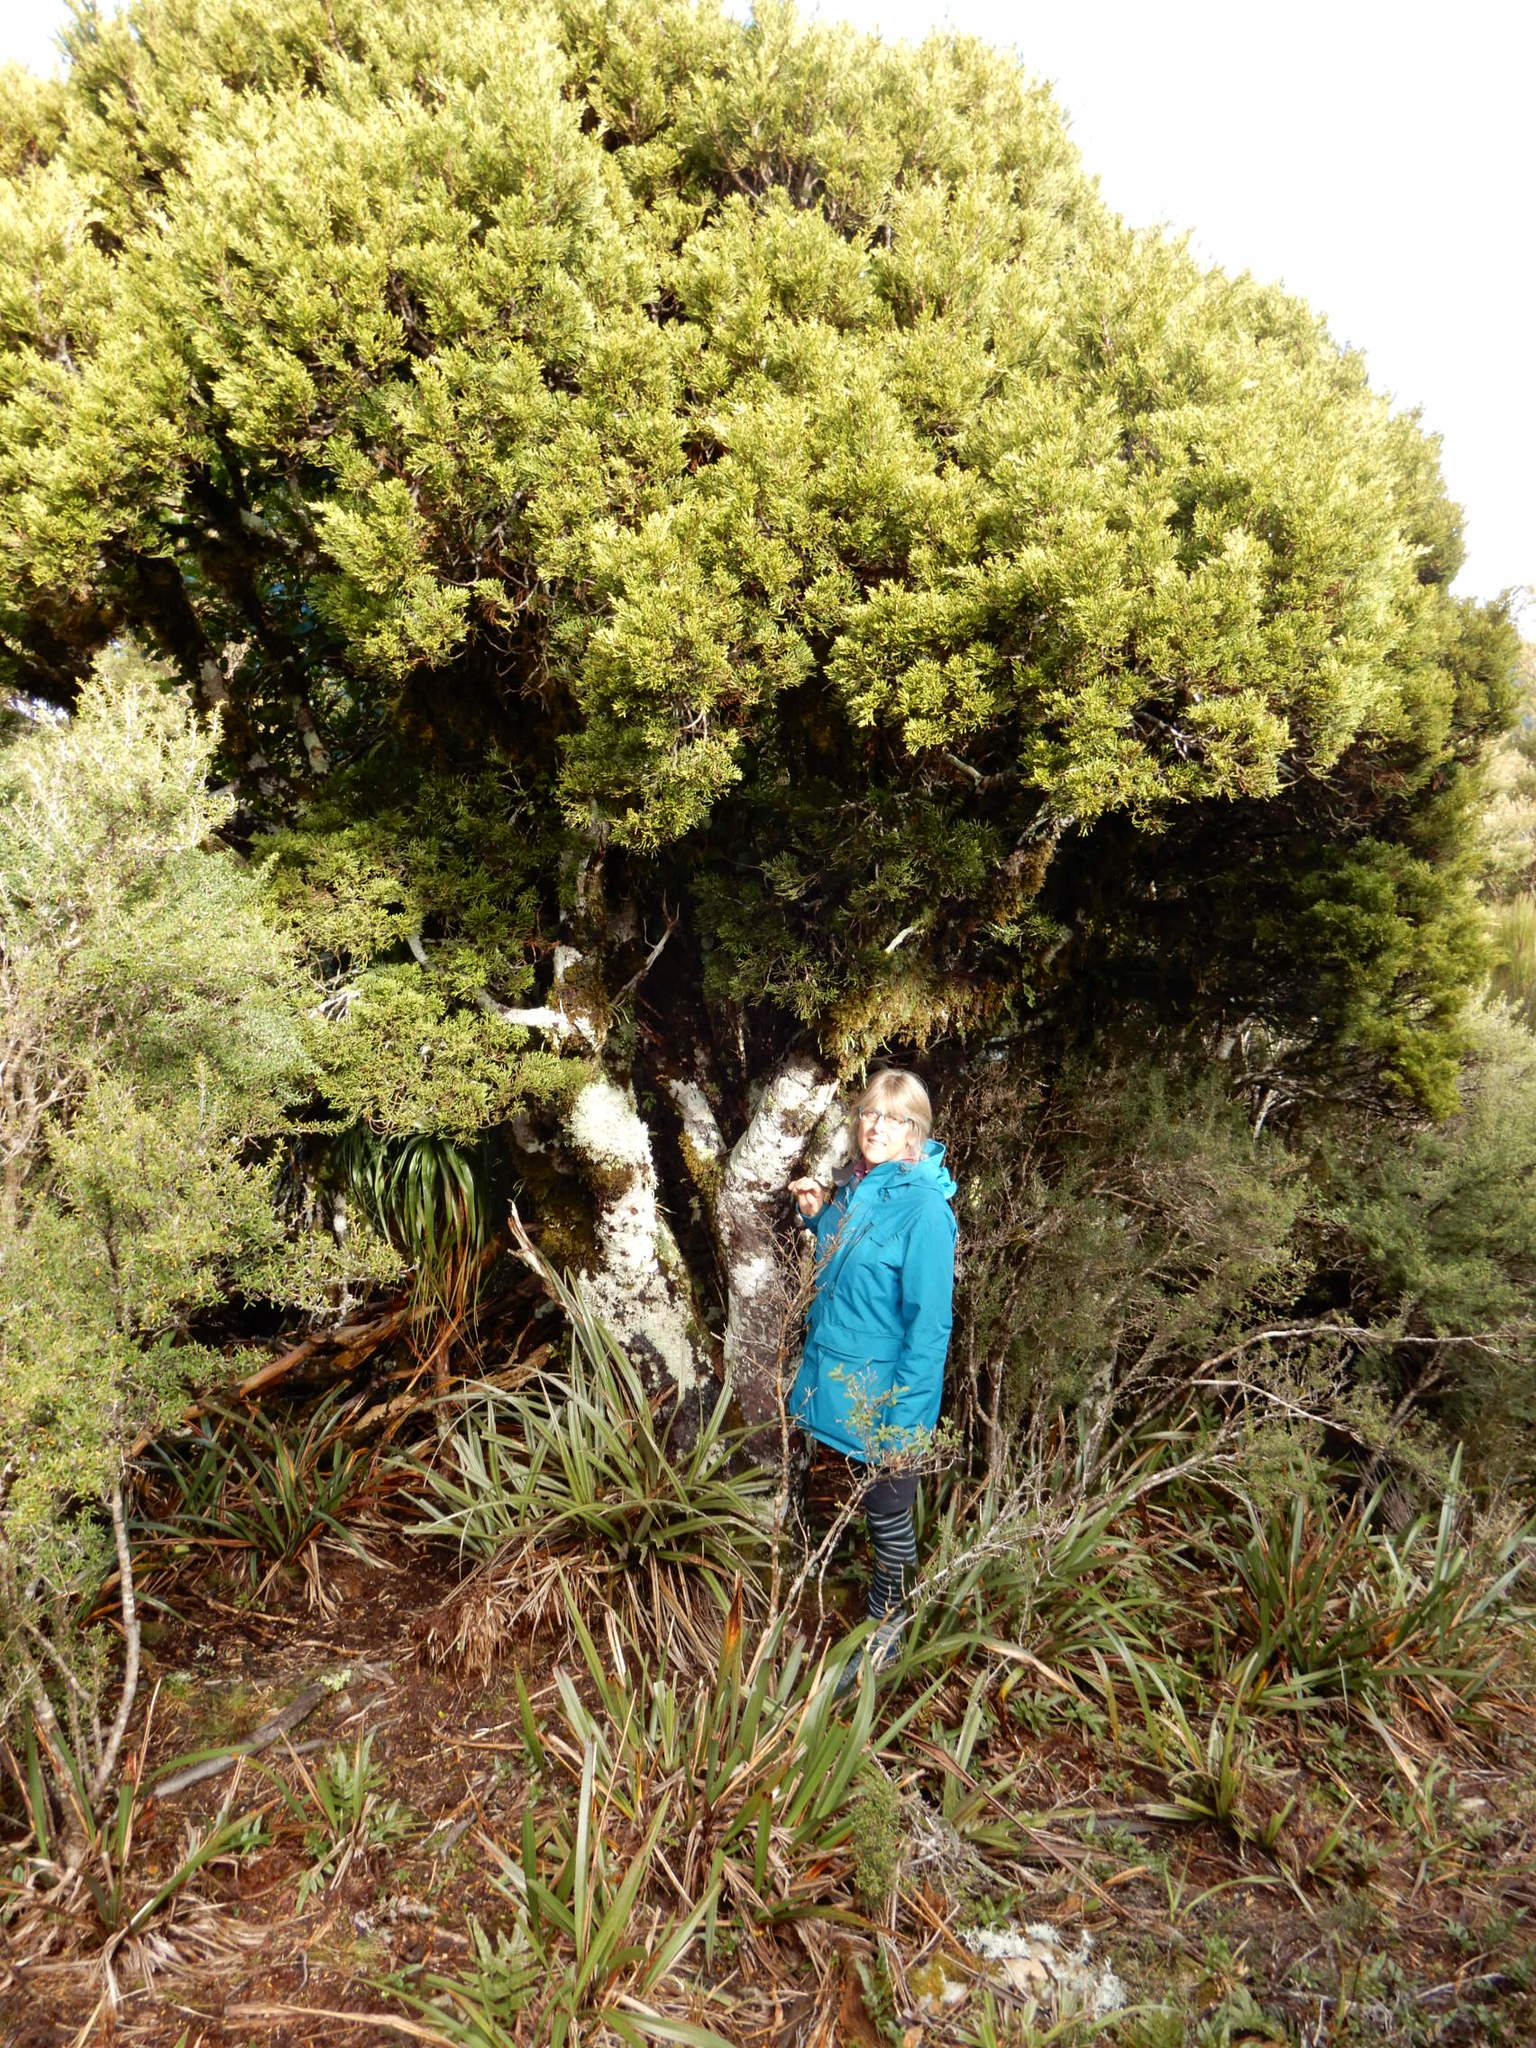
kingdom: Plantae
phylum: Tracheophyta
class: Pinopsida
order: Pinales
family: Podocarpaceae
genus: Halocarpus
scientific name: Halocarpus bidwillii
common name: Bog pine
